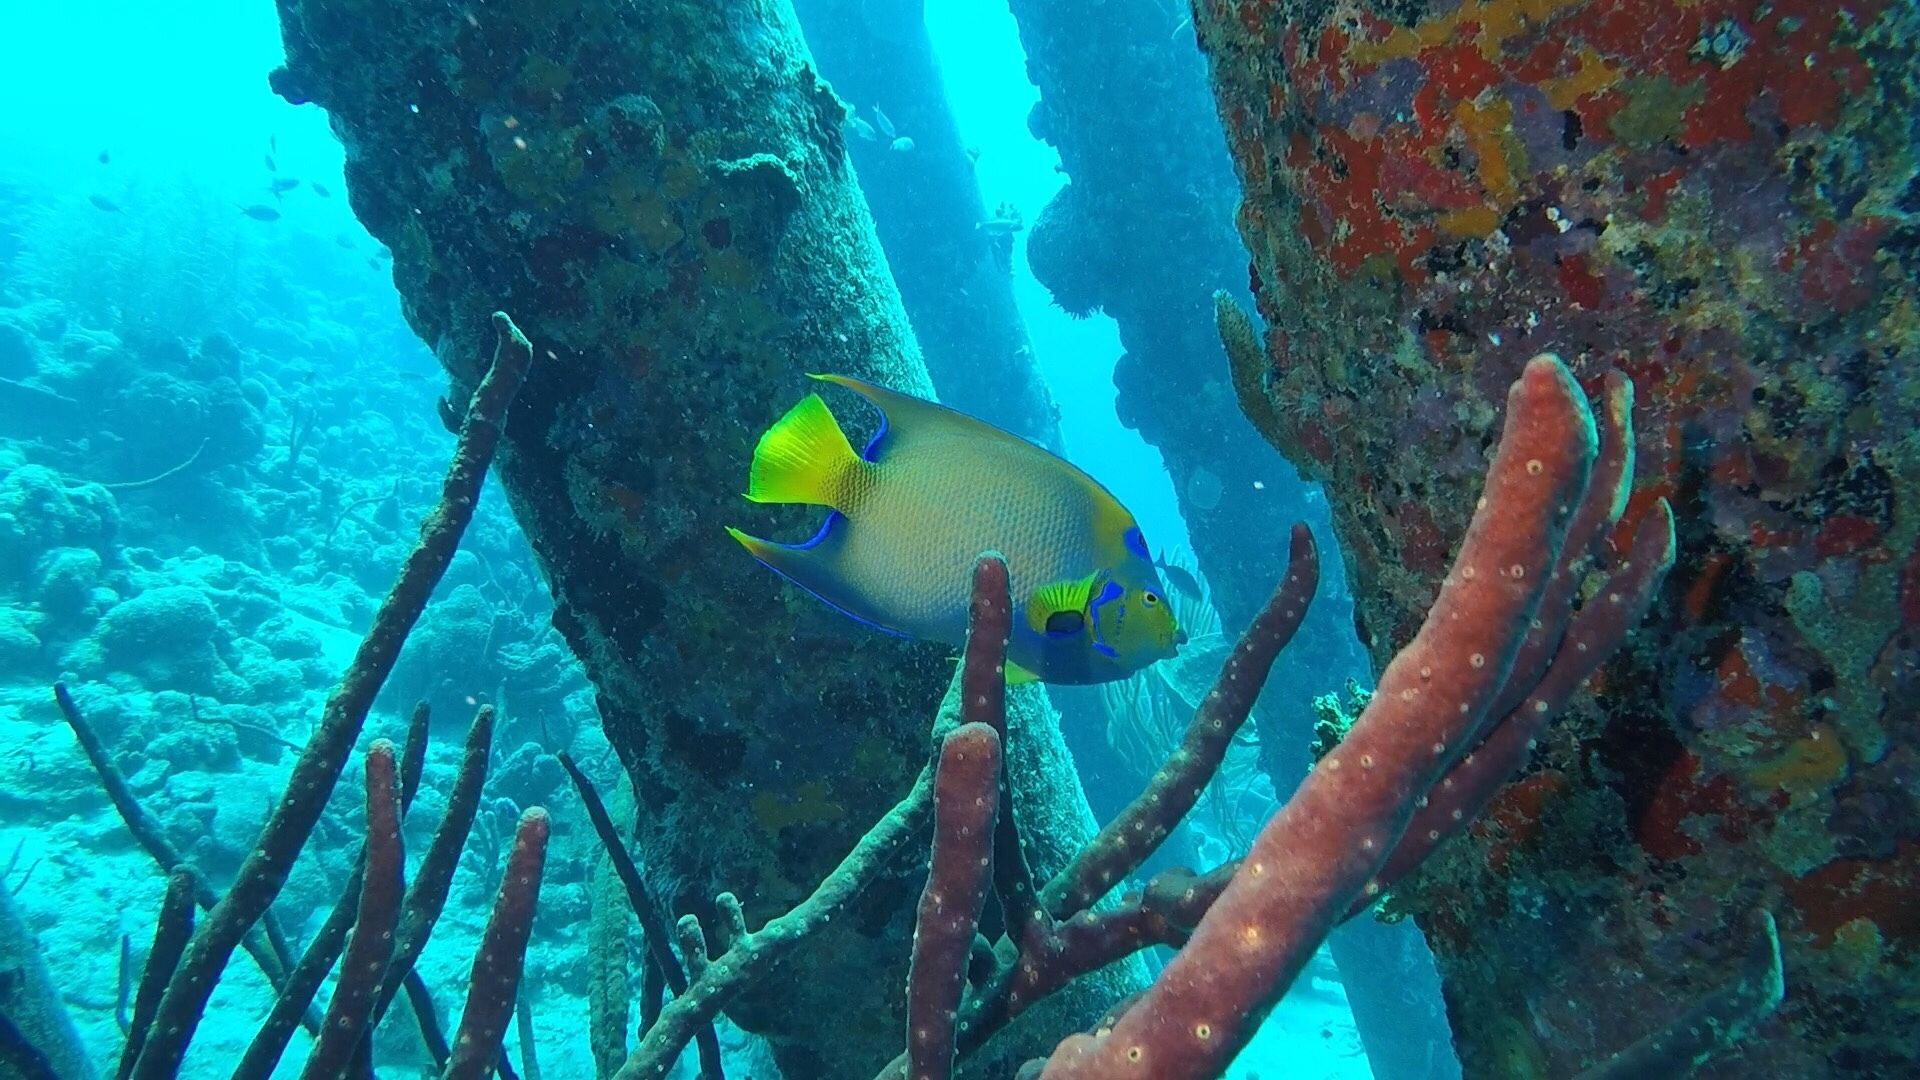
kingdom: Animalia
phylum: Chordata
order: Perciformes
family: Pomacanthidae
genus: Holacanthus
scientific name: Holacanthus ciliaris
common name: Queen angelfish
